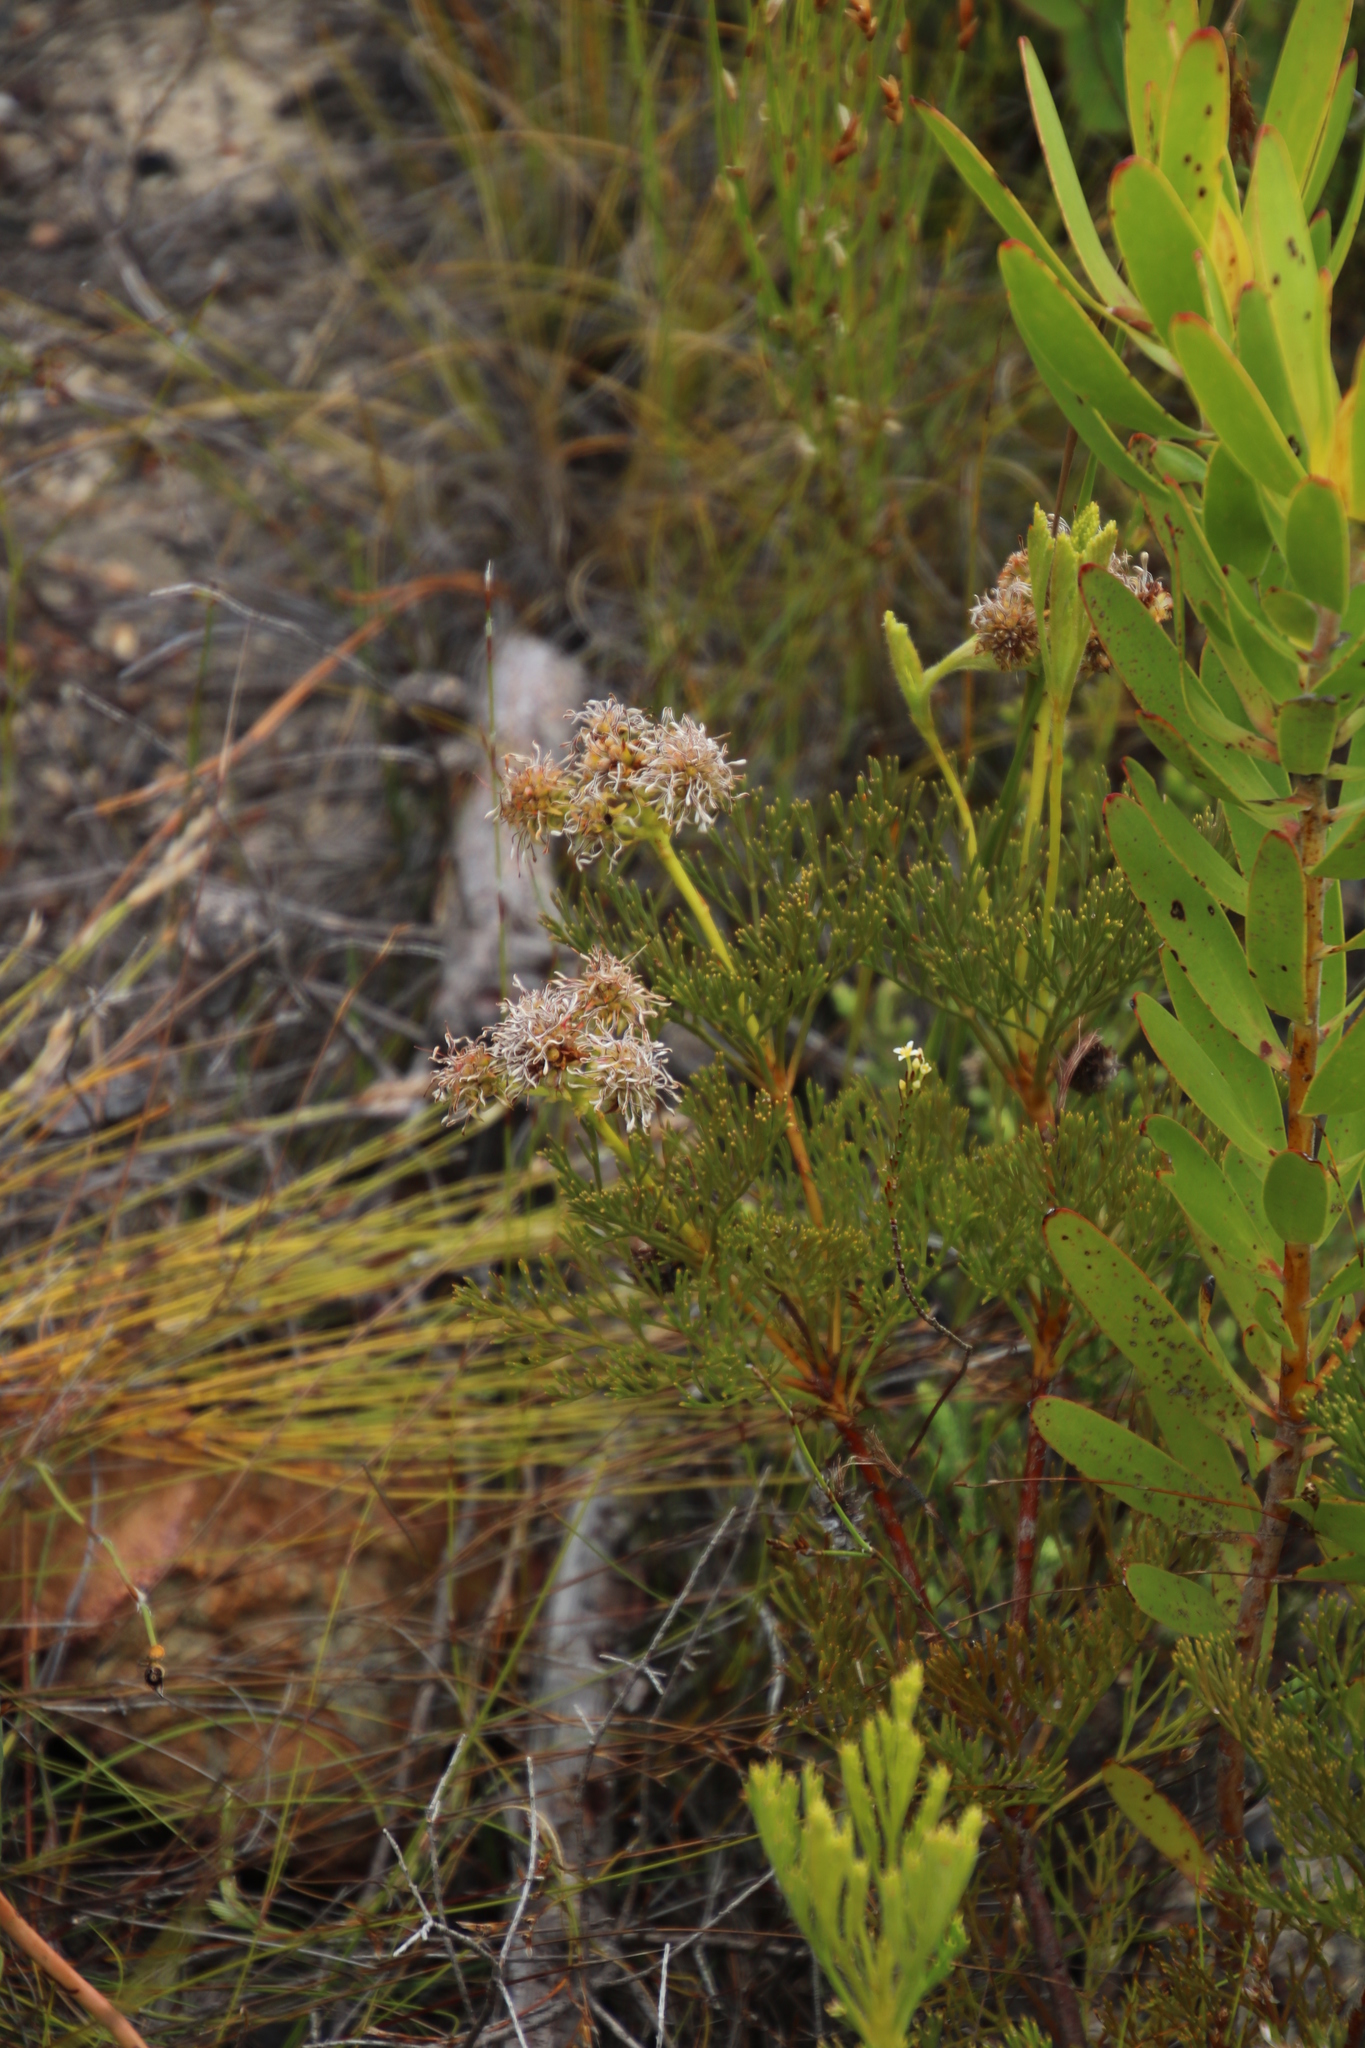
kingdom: Plantae
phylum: Tracheophyta
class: Magnoliopsida
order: Proteales
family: Proteaceae
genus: Serruria
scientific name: Serruria elongata
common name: Long-stalk spiderhead
